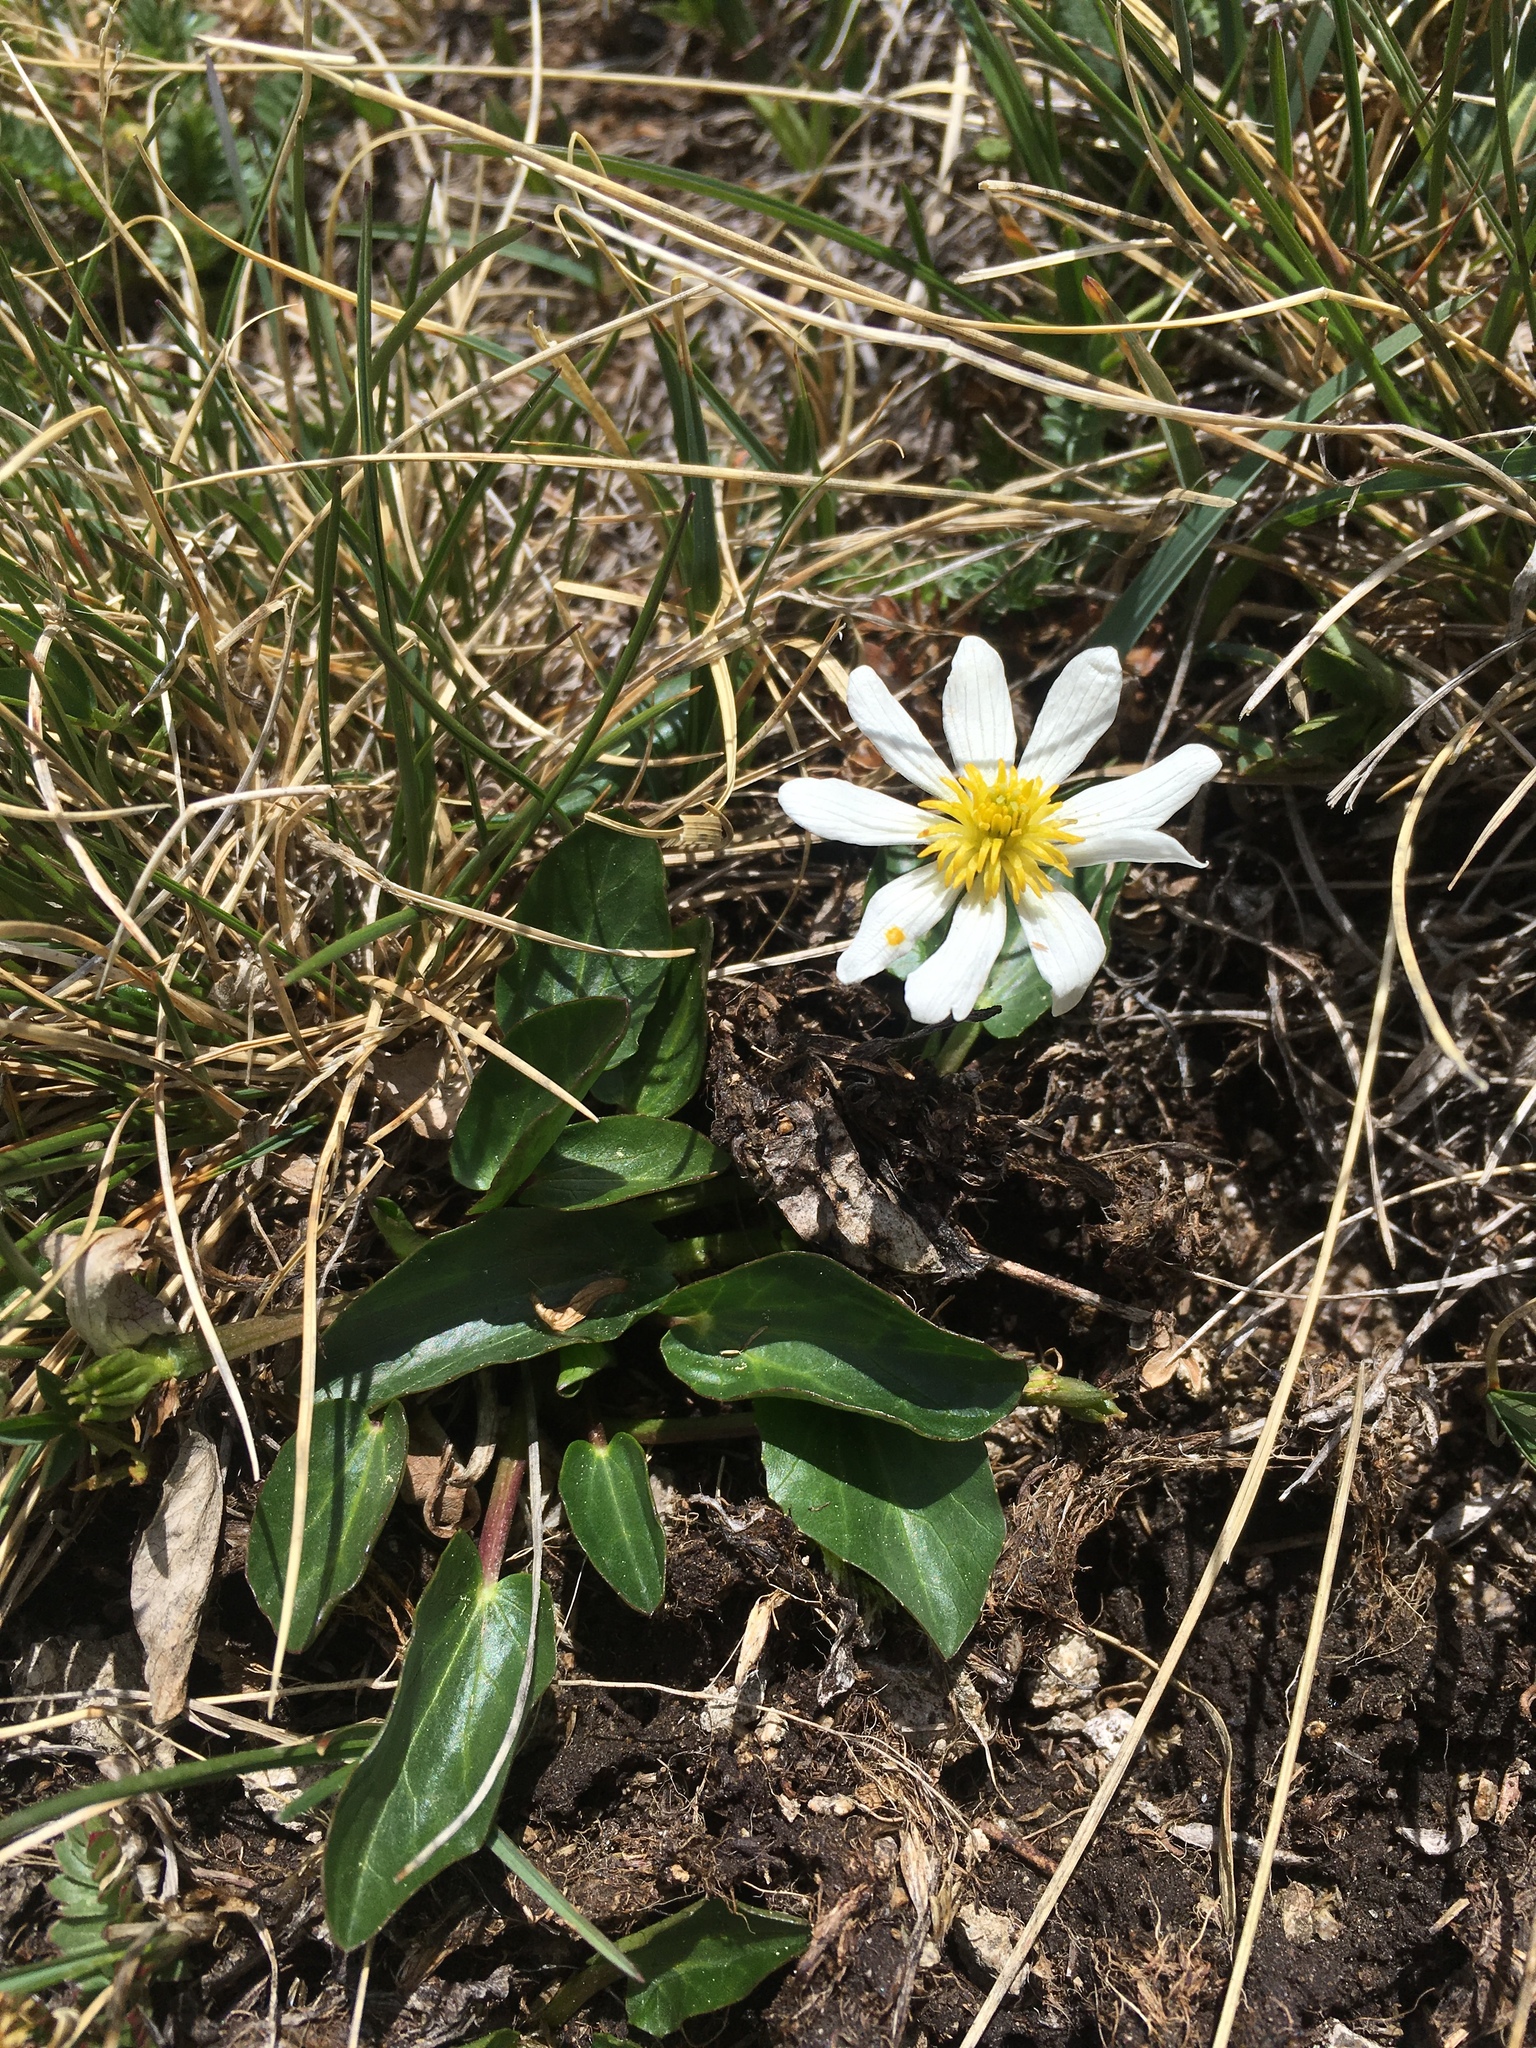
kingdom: Plantae
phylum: Tracheophyta
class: Magnoliopsida
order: Ranunculales
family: Ranunculaceae
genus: Caltha
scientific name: Caltha leptosepala
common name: Elkslip
